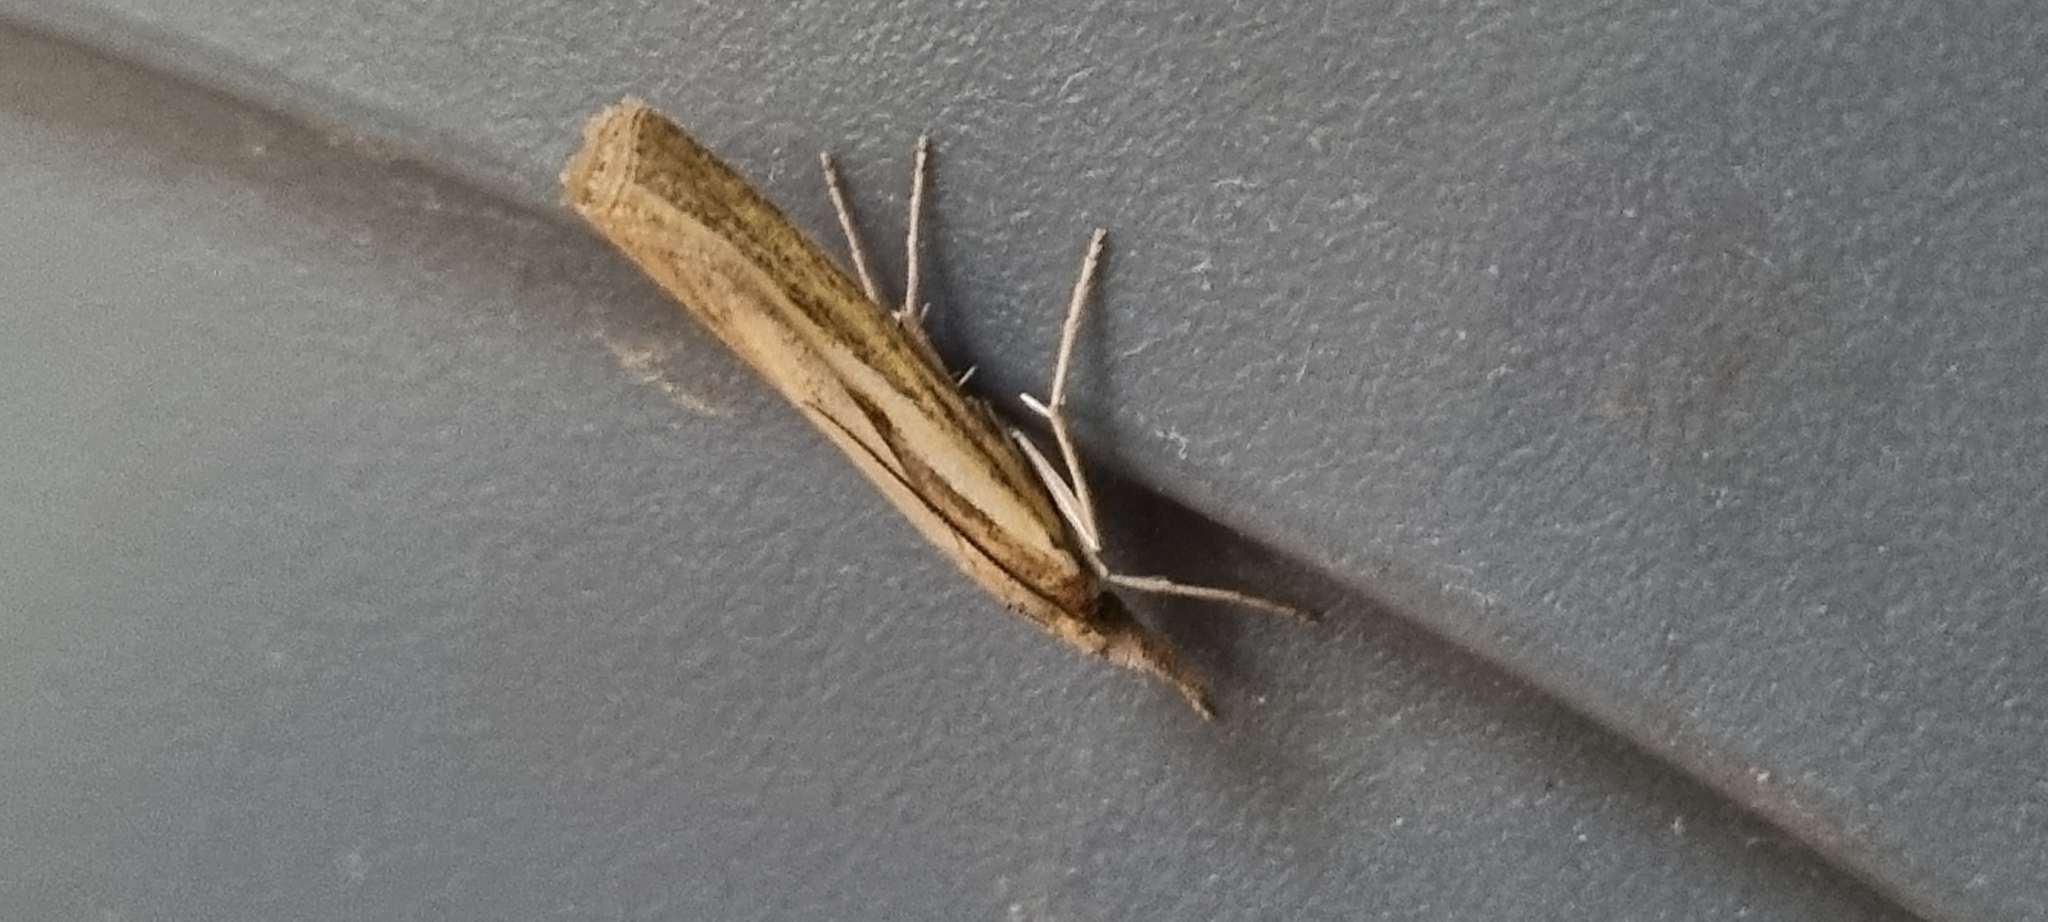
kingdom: Animalia
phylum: Arthropoda
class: Insecta
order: Lepidoptera
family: Crambidae
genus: Agriphila
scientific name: Agriphila tristellus
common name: Common grass-veneer
